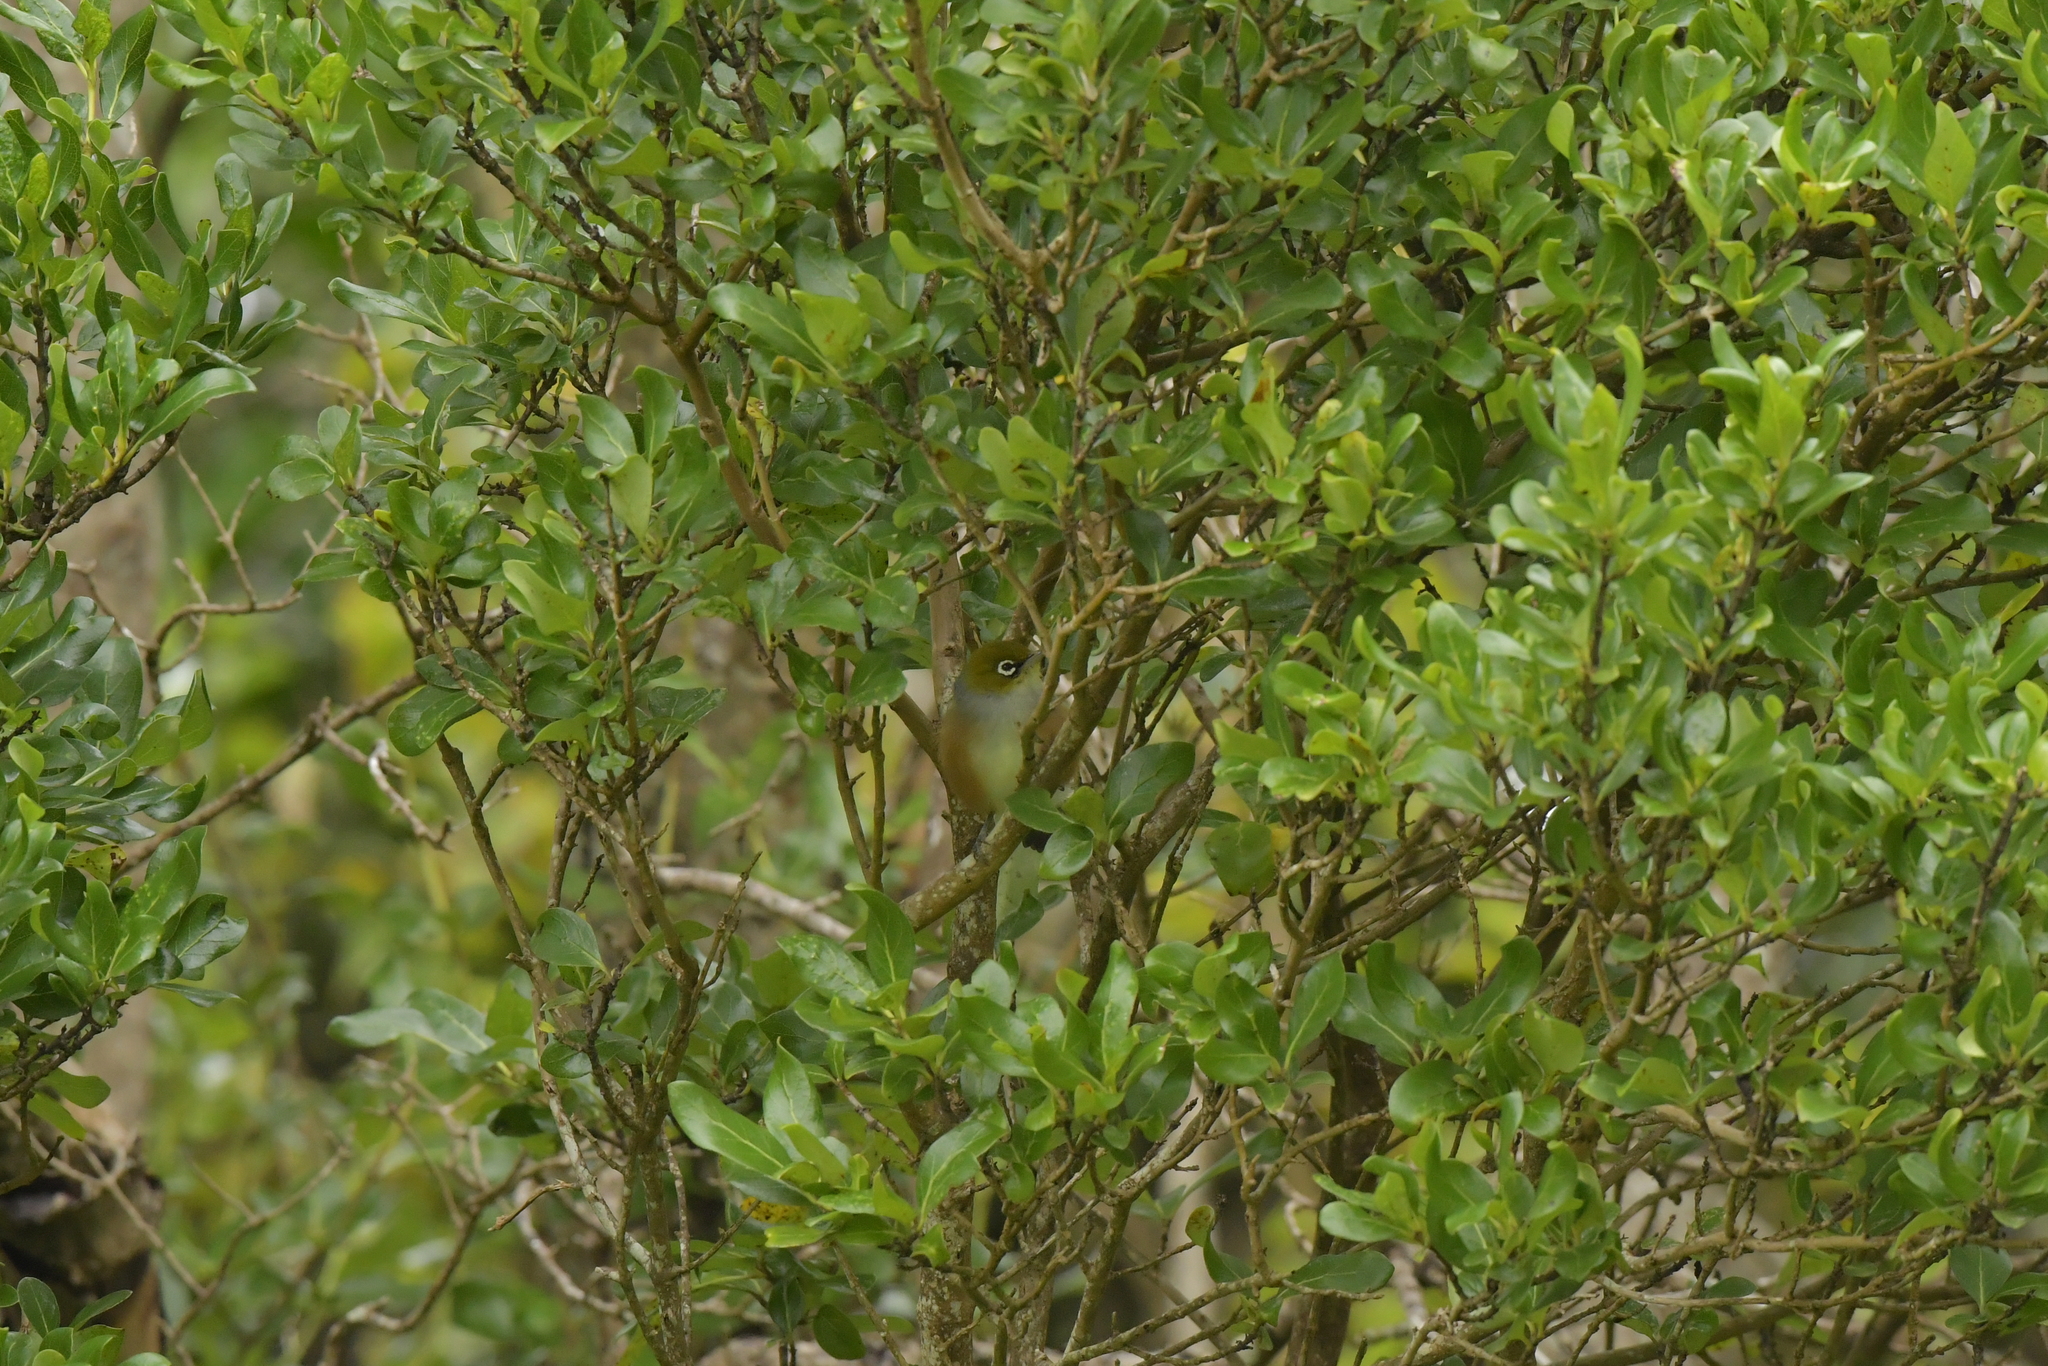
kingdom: Animalia
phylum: Chordata
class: Aves
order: Passeriformes
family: Zosteropidae
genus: Zosterops
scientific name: Zosterops lateralis
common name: Silvereye
